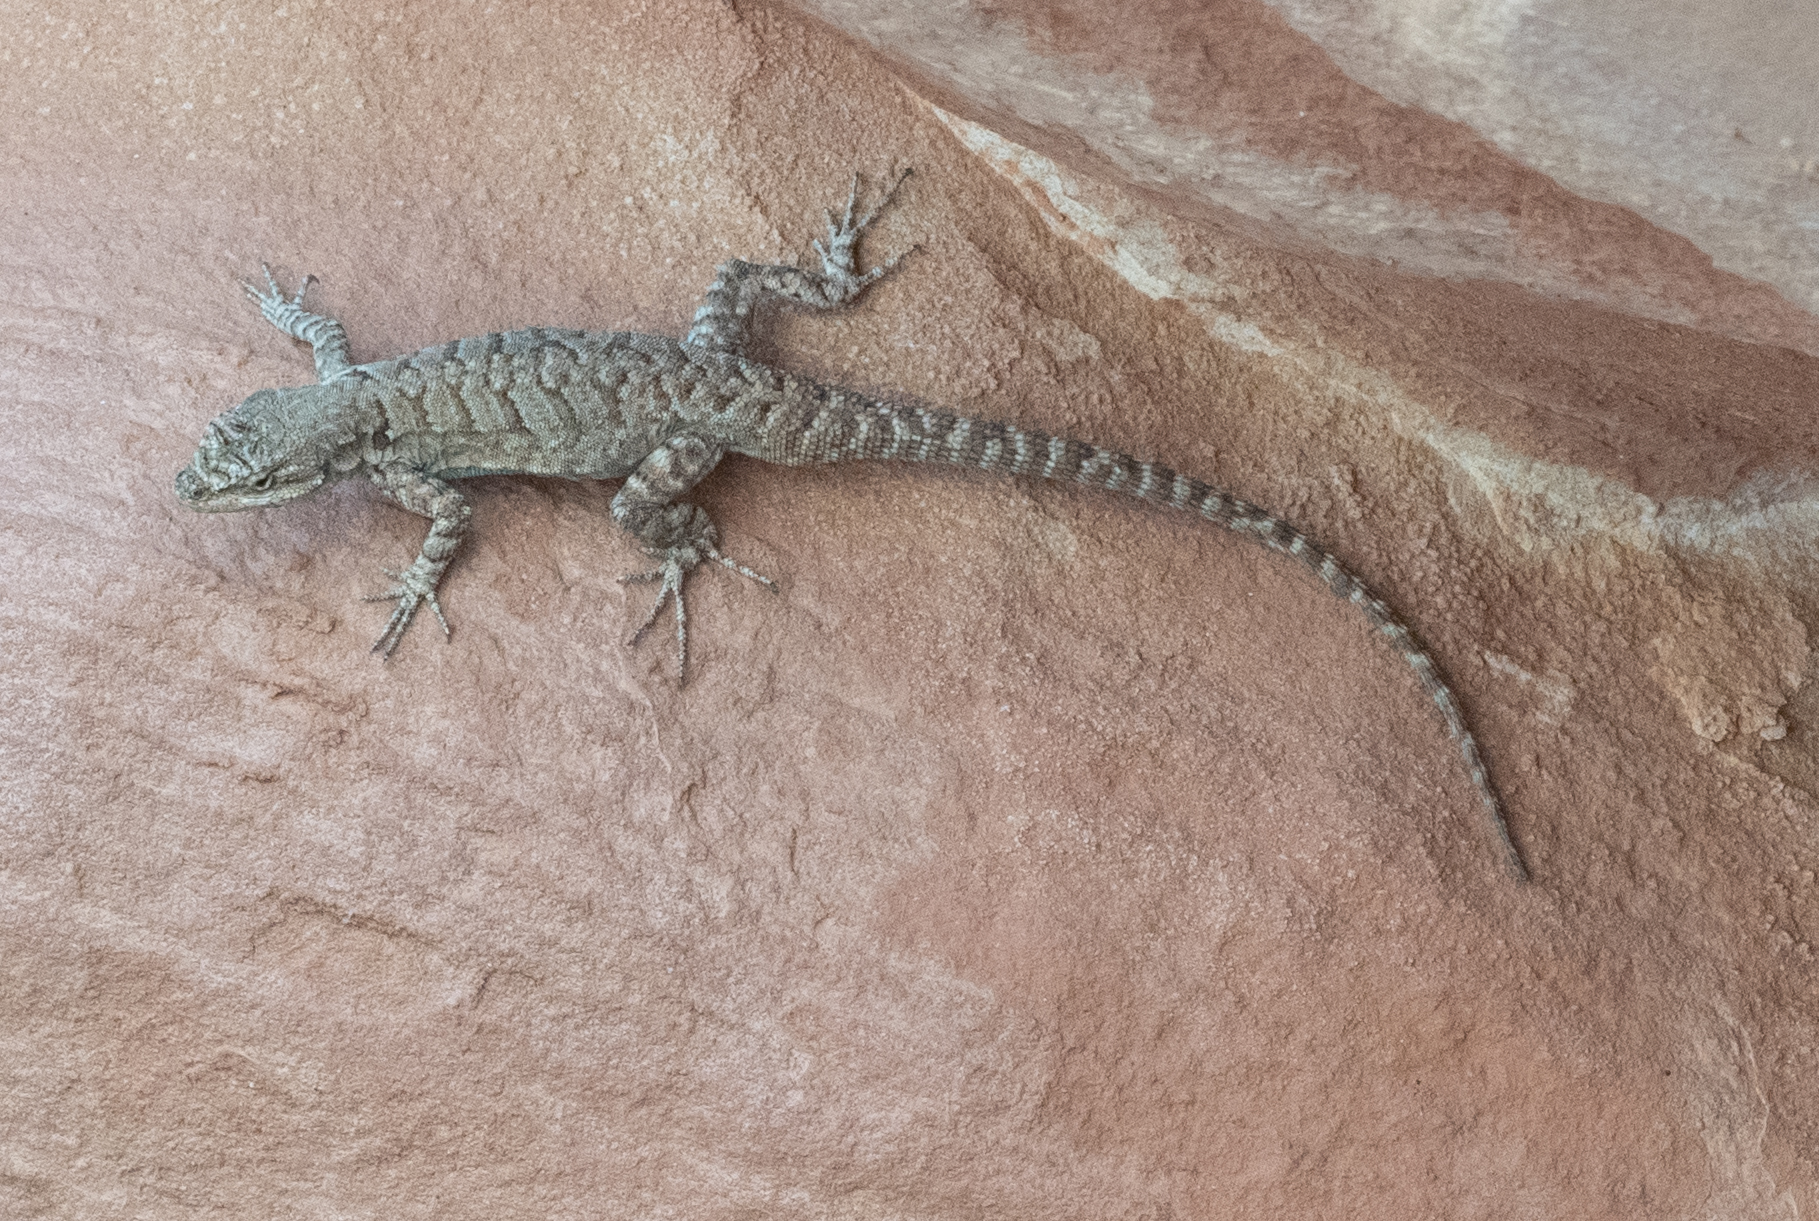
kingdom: Animalia
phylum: Chordata
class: Squamata
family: Phrynosomatidae
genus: Urosaurus
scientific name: Urosaurus ornatus
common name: Ornate tree lizard
